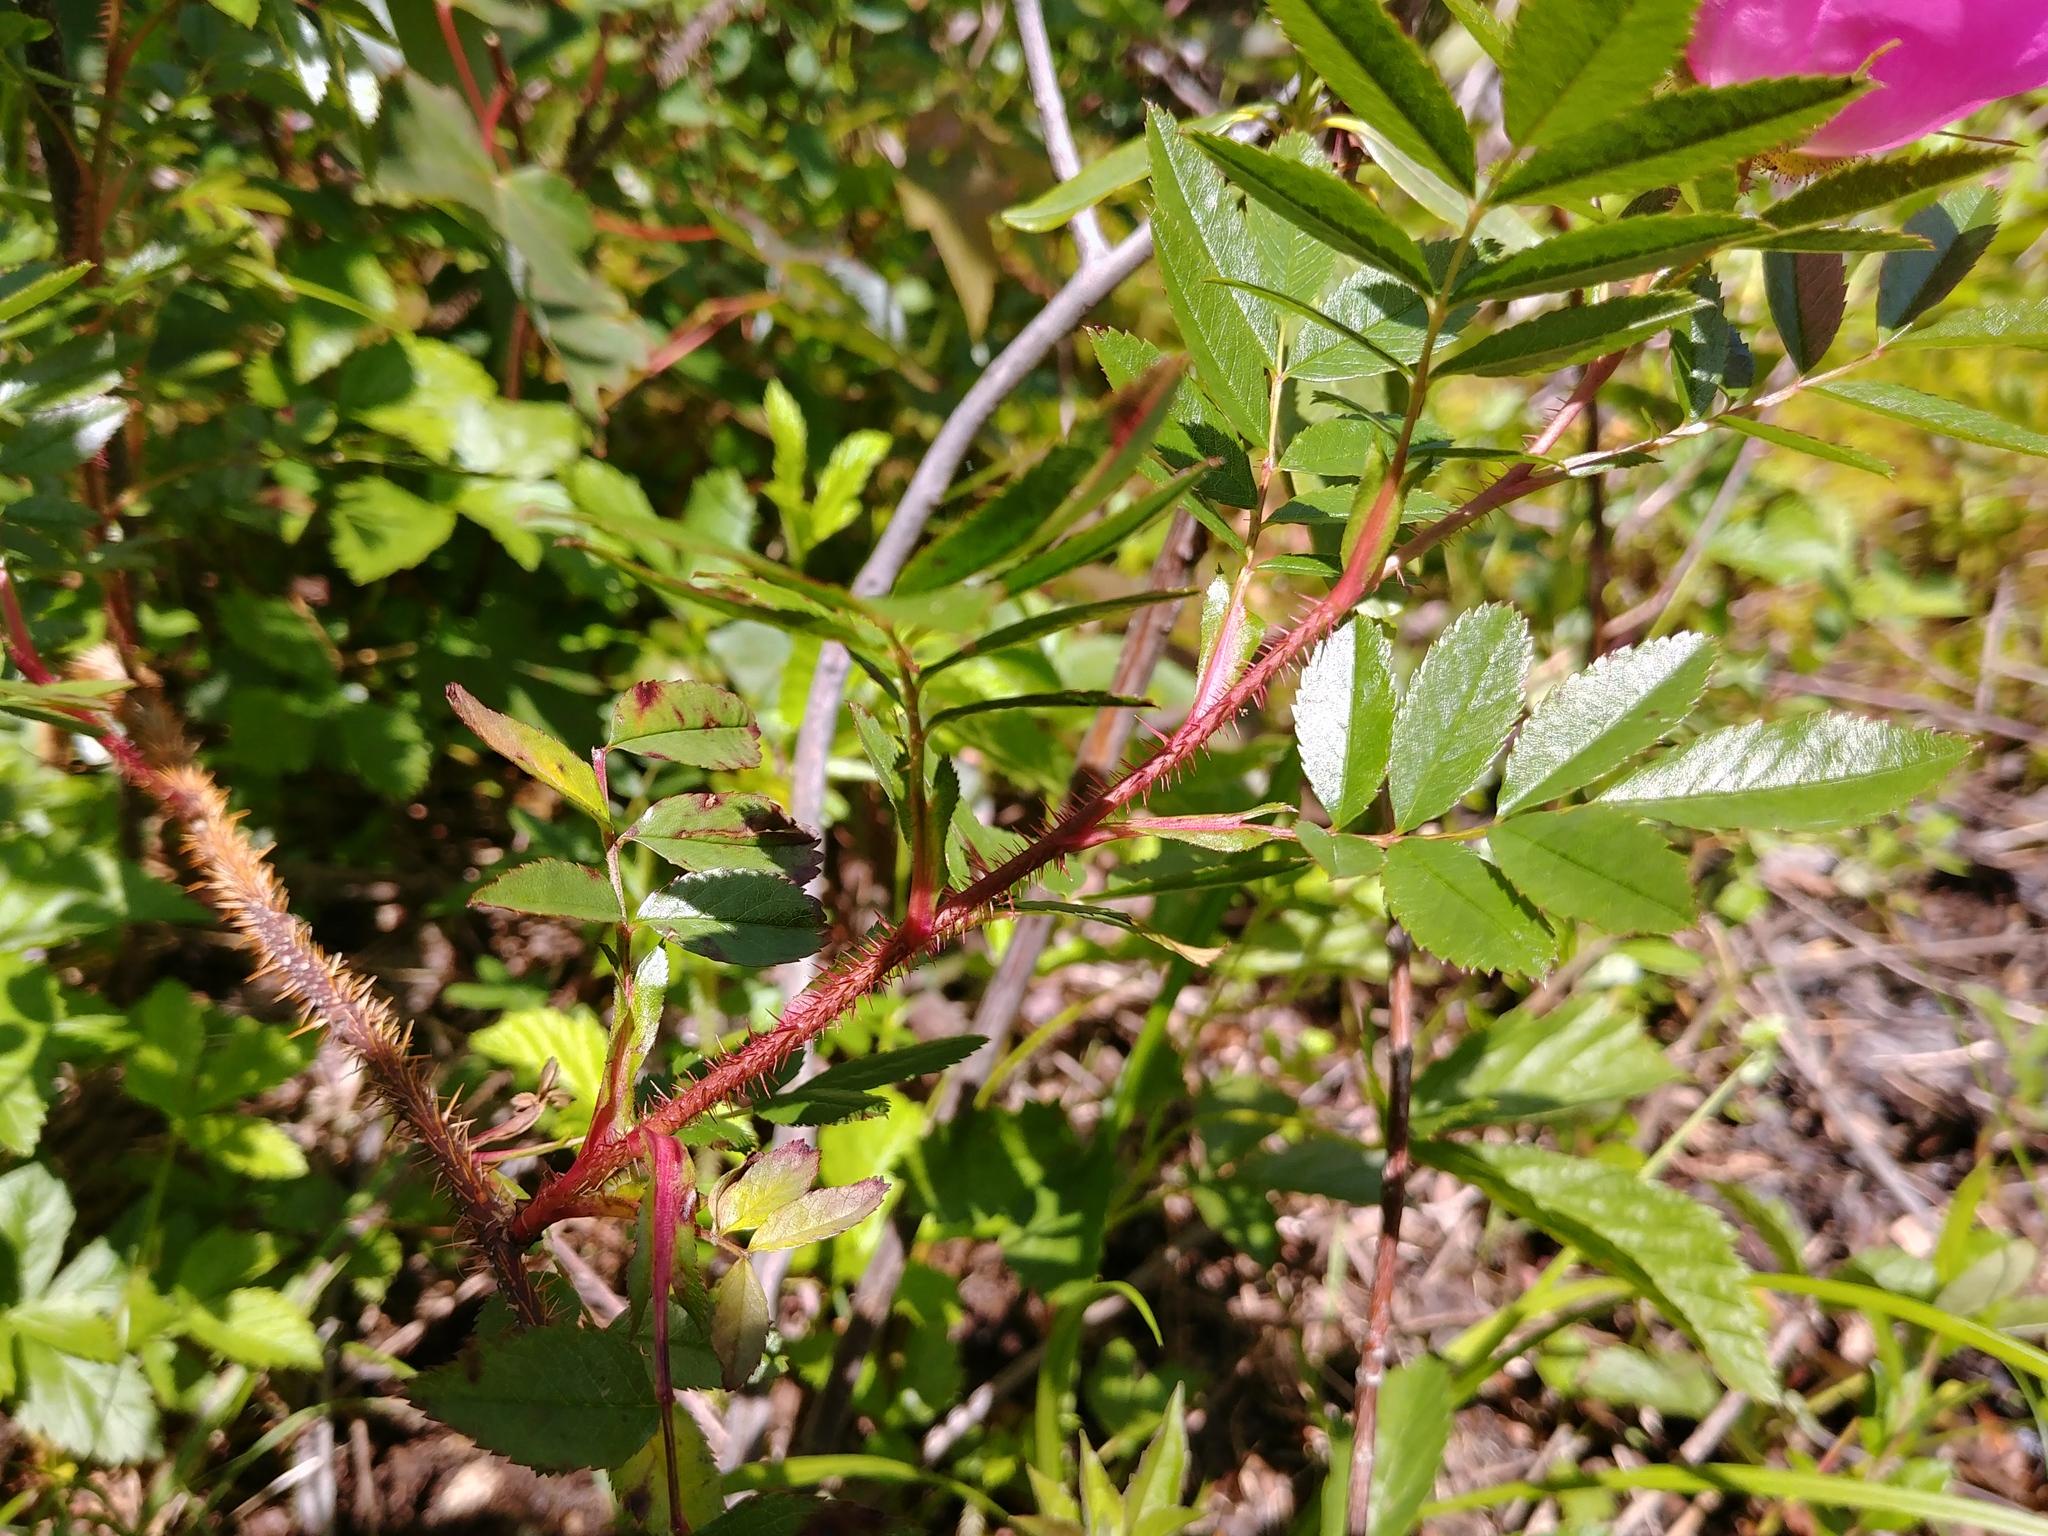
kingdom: Plantae
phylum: Tracheophyta
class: Magnoliopsida
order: Rosales
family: Rosaceae
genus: Rosa
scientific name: Rosa nitida
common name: New england rose
